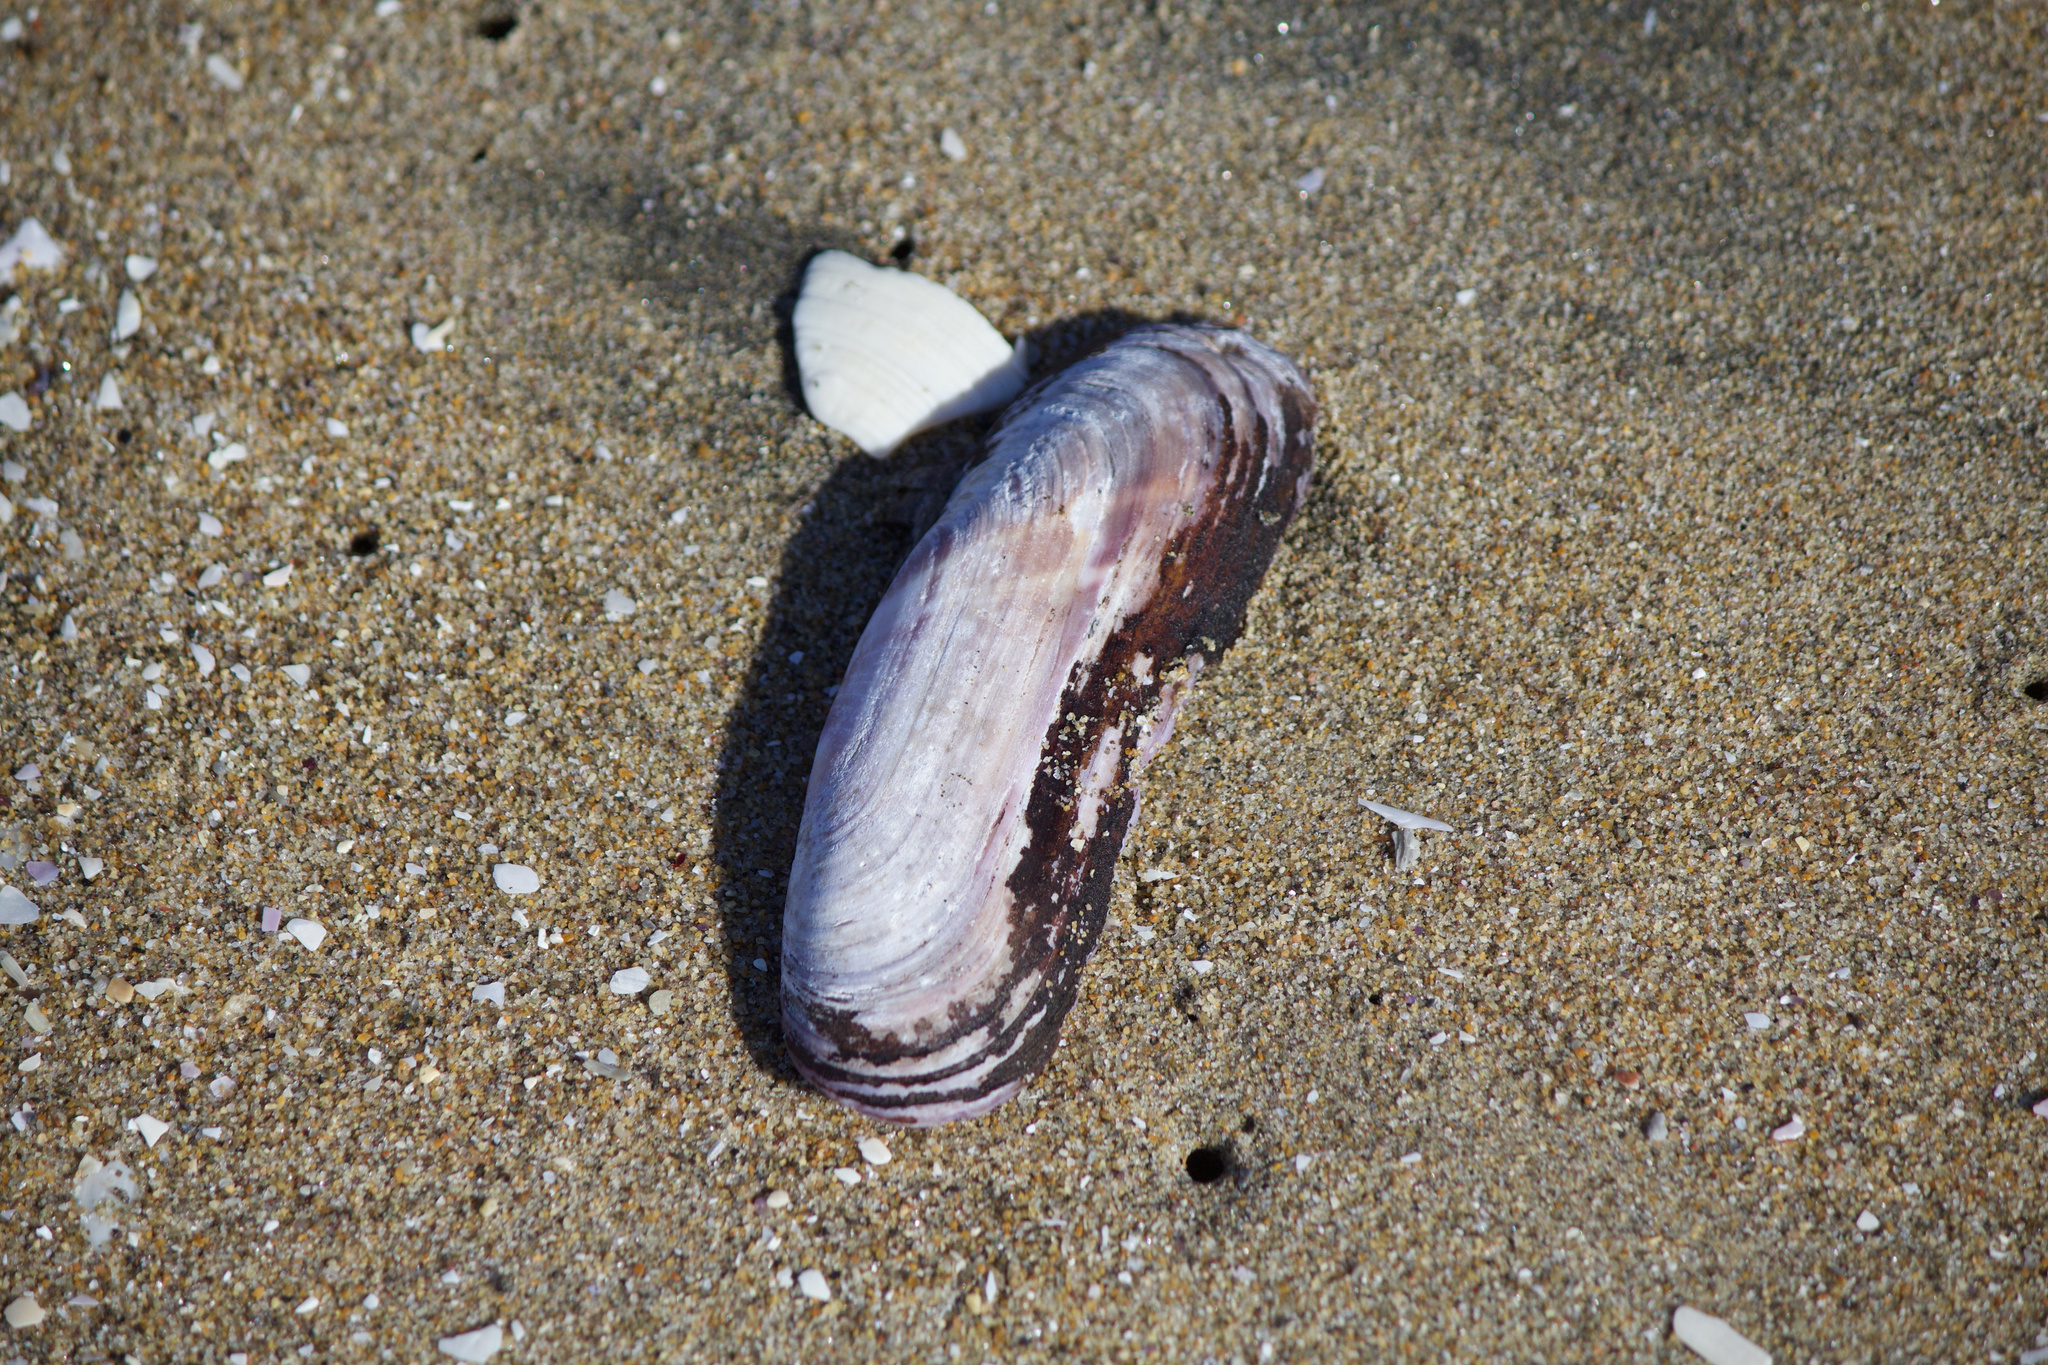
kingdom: Animalia
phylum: Mollusca
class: Bivalvia
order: Cardiida
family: Solecurtidae
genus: Tagelus
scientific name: Tagelus dombeii
